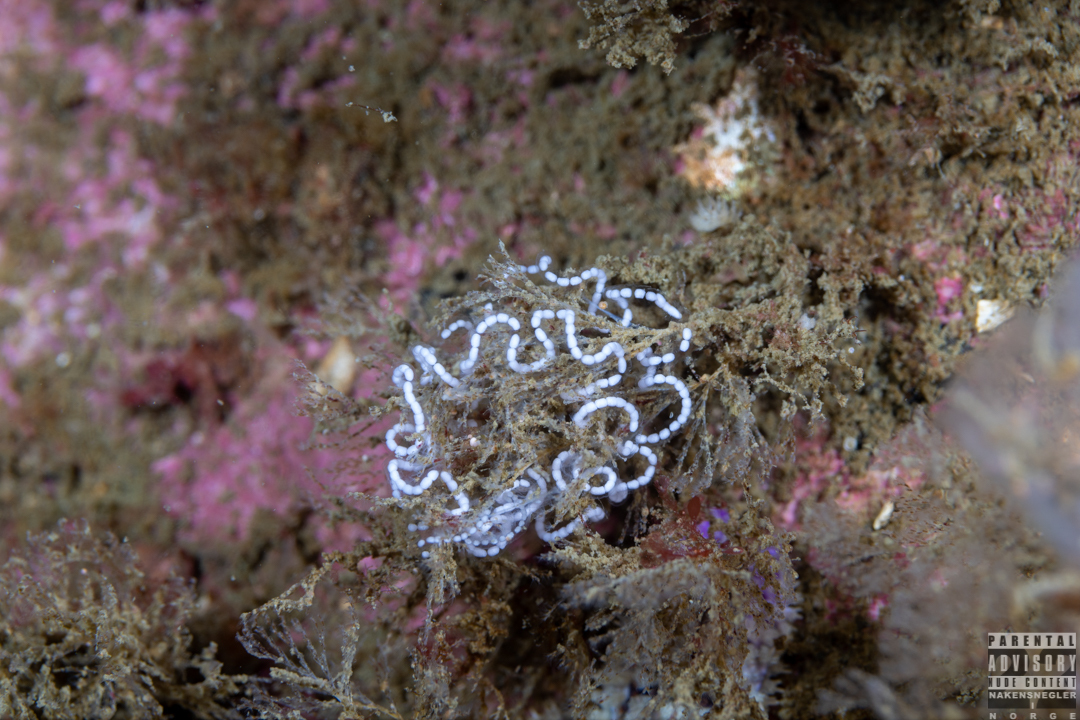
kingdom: Animalia
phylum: Mollusca
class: Gastropoda
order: Nudibranchia
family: Janolidae
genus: Antiopella
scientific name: Antiopella cristata
